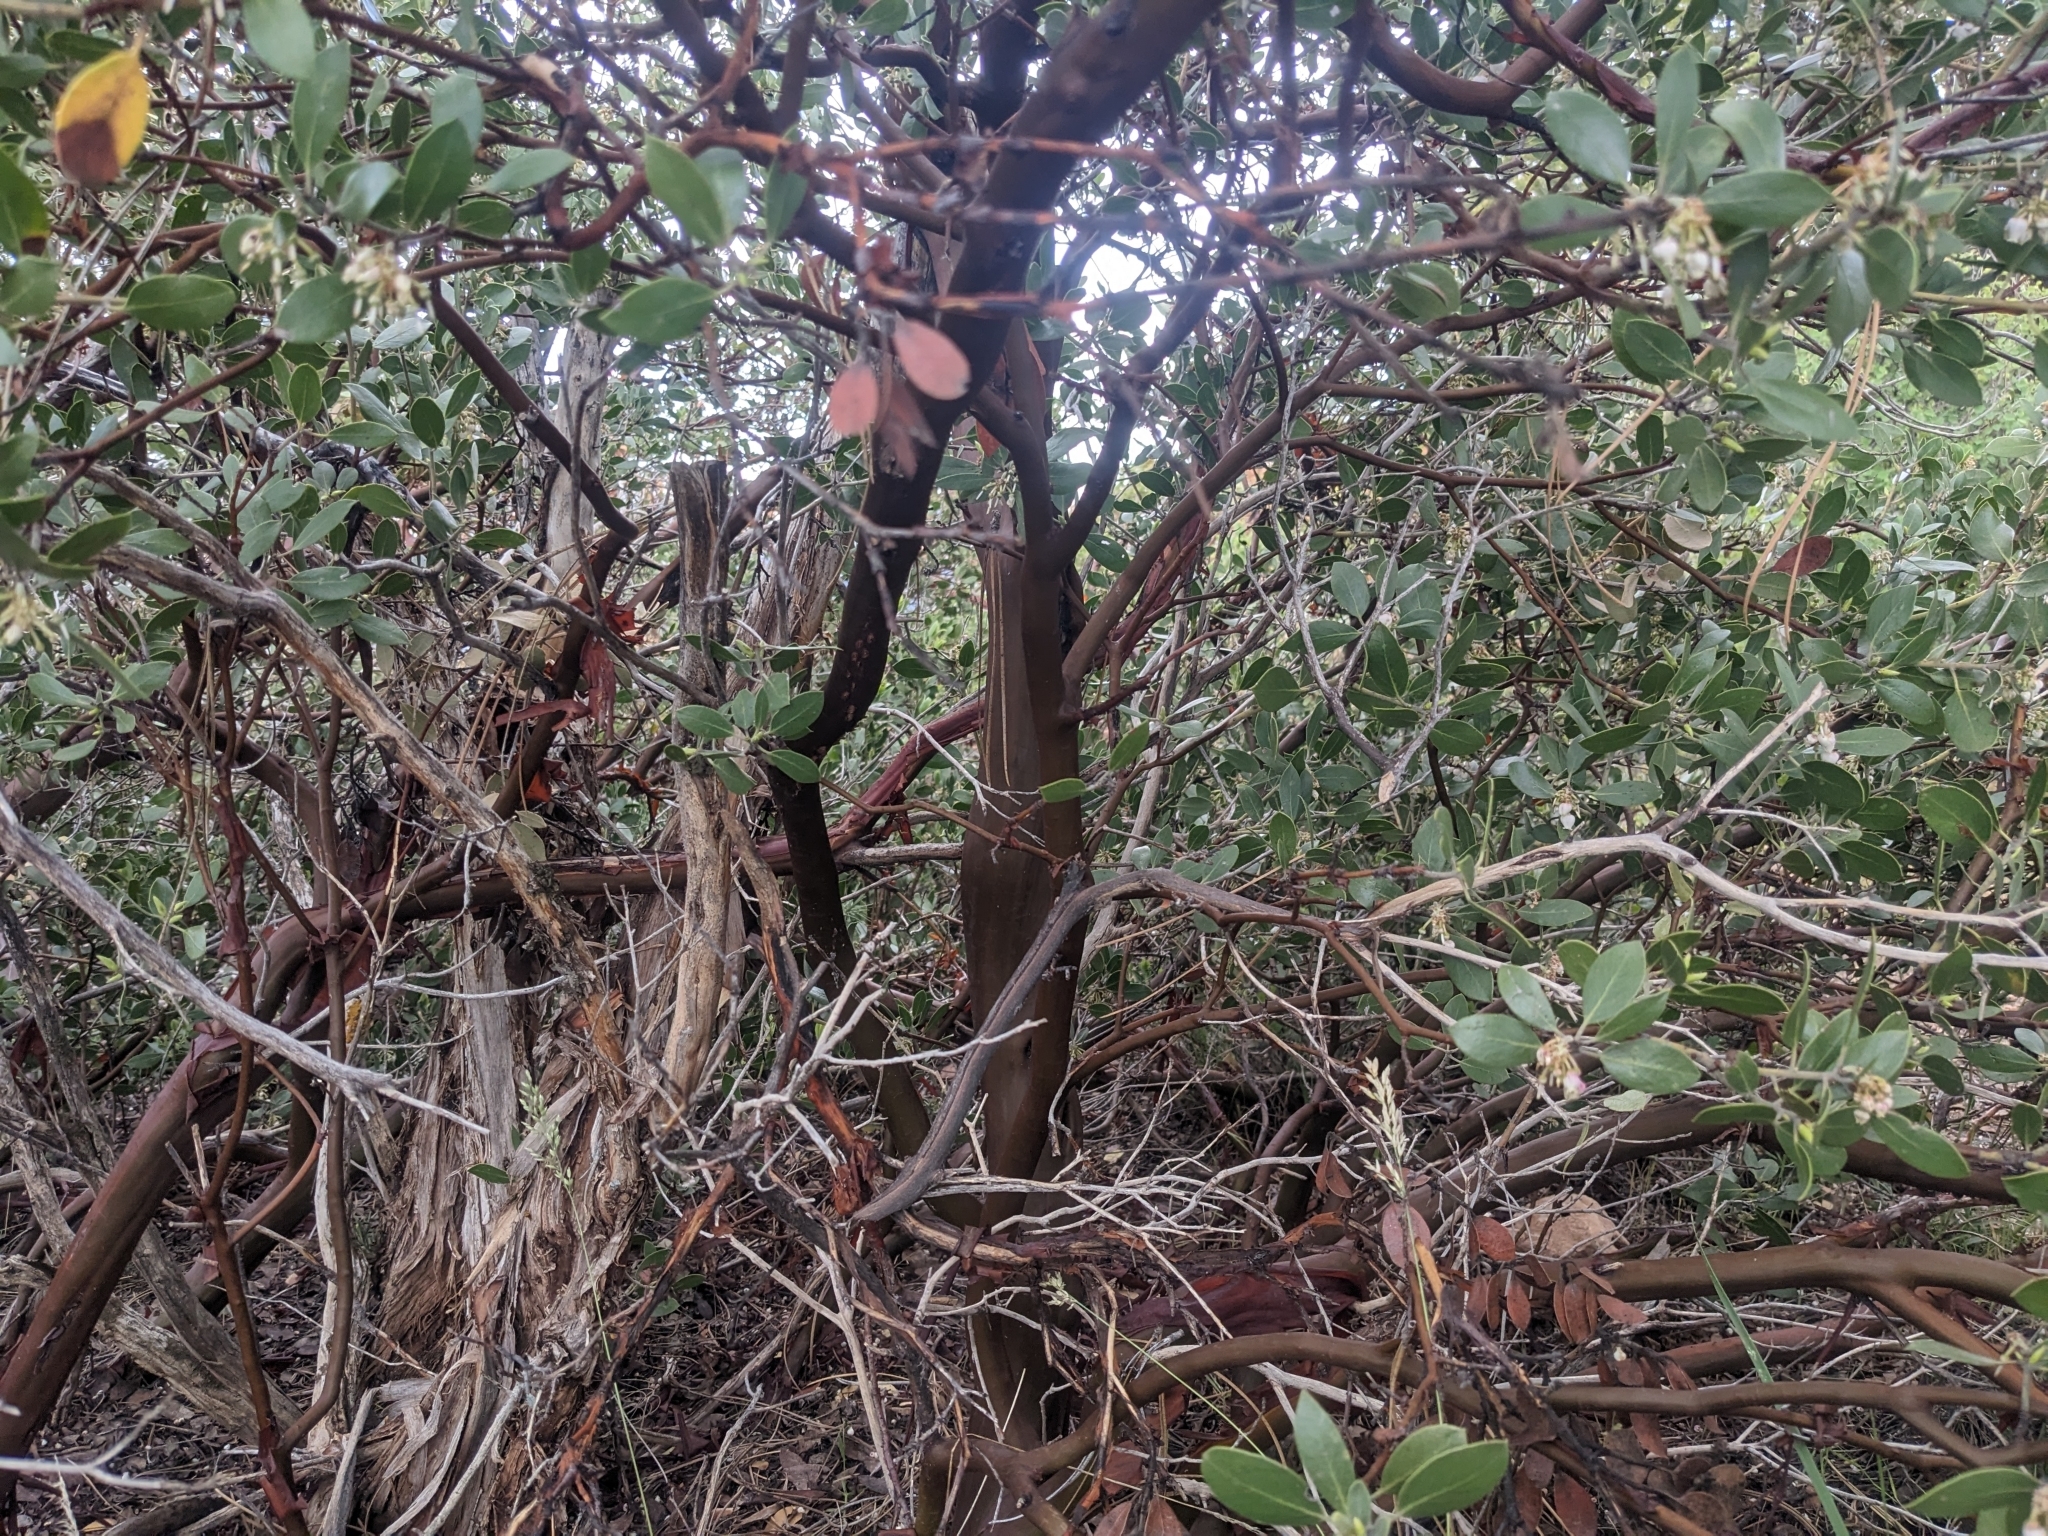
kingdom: Plantae
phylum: Tracheophyta
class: Magnoliopsida
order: Ericales
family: Ericaceae
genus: Arctostaphylos
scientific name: Arctostaphylos pungens
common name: Mexican manzanita
